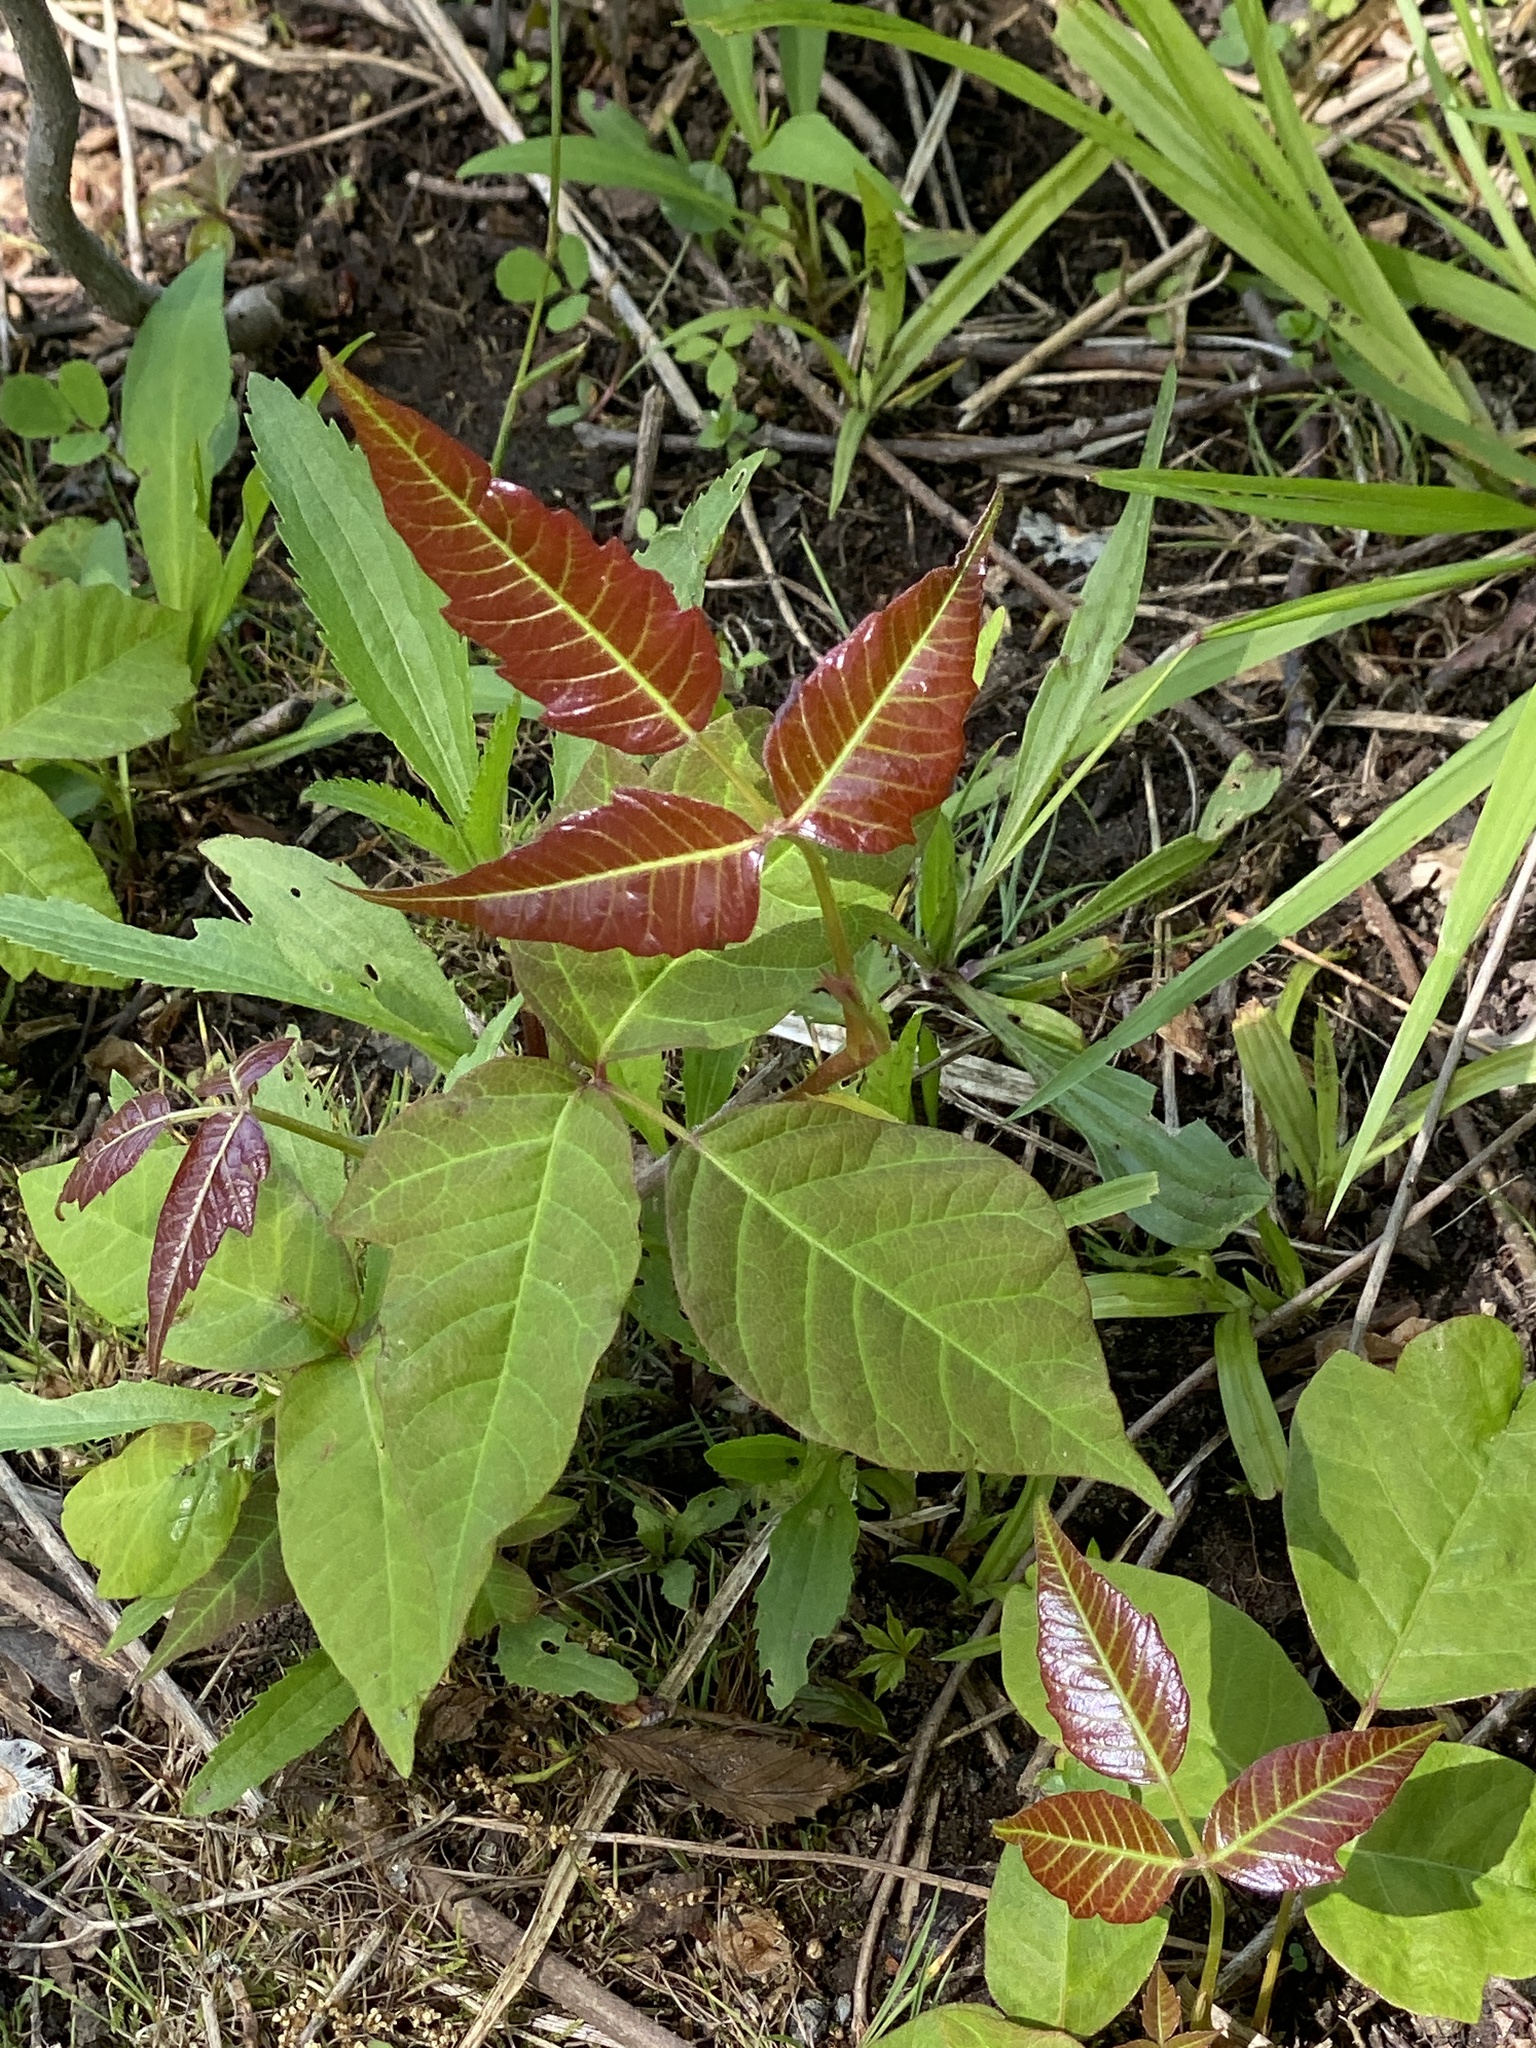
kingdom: Plantae
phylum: Tracheophyta
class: Magnoliopsida
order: Sapindales
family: Anacardiaceae
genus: Toxicodendron
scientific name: Toxicodendron radicans
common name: Poison ivy
